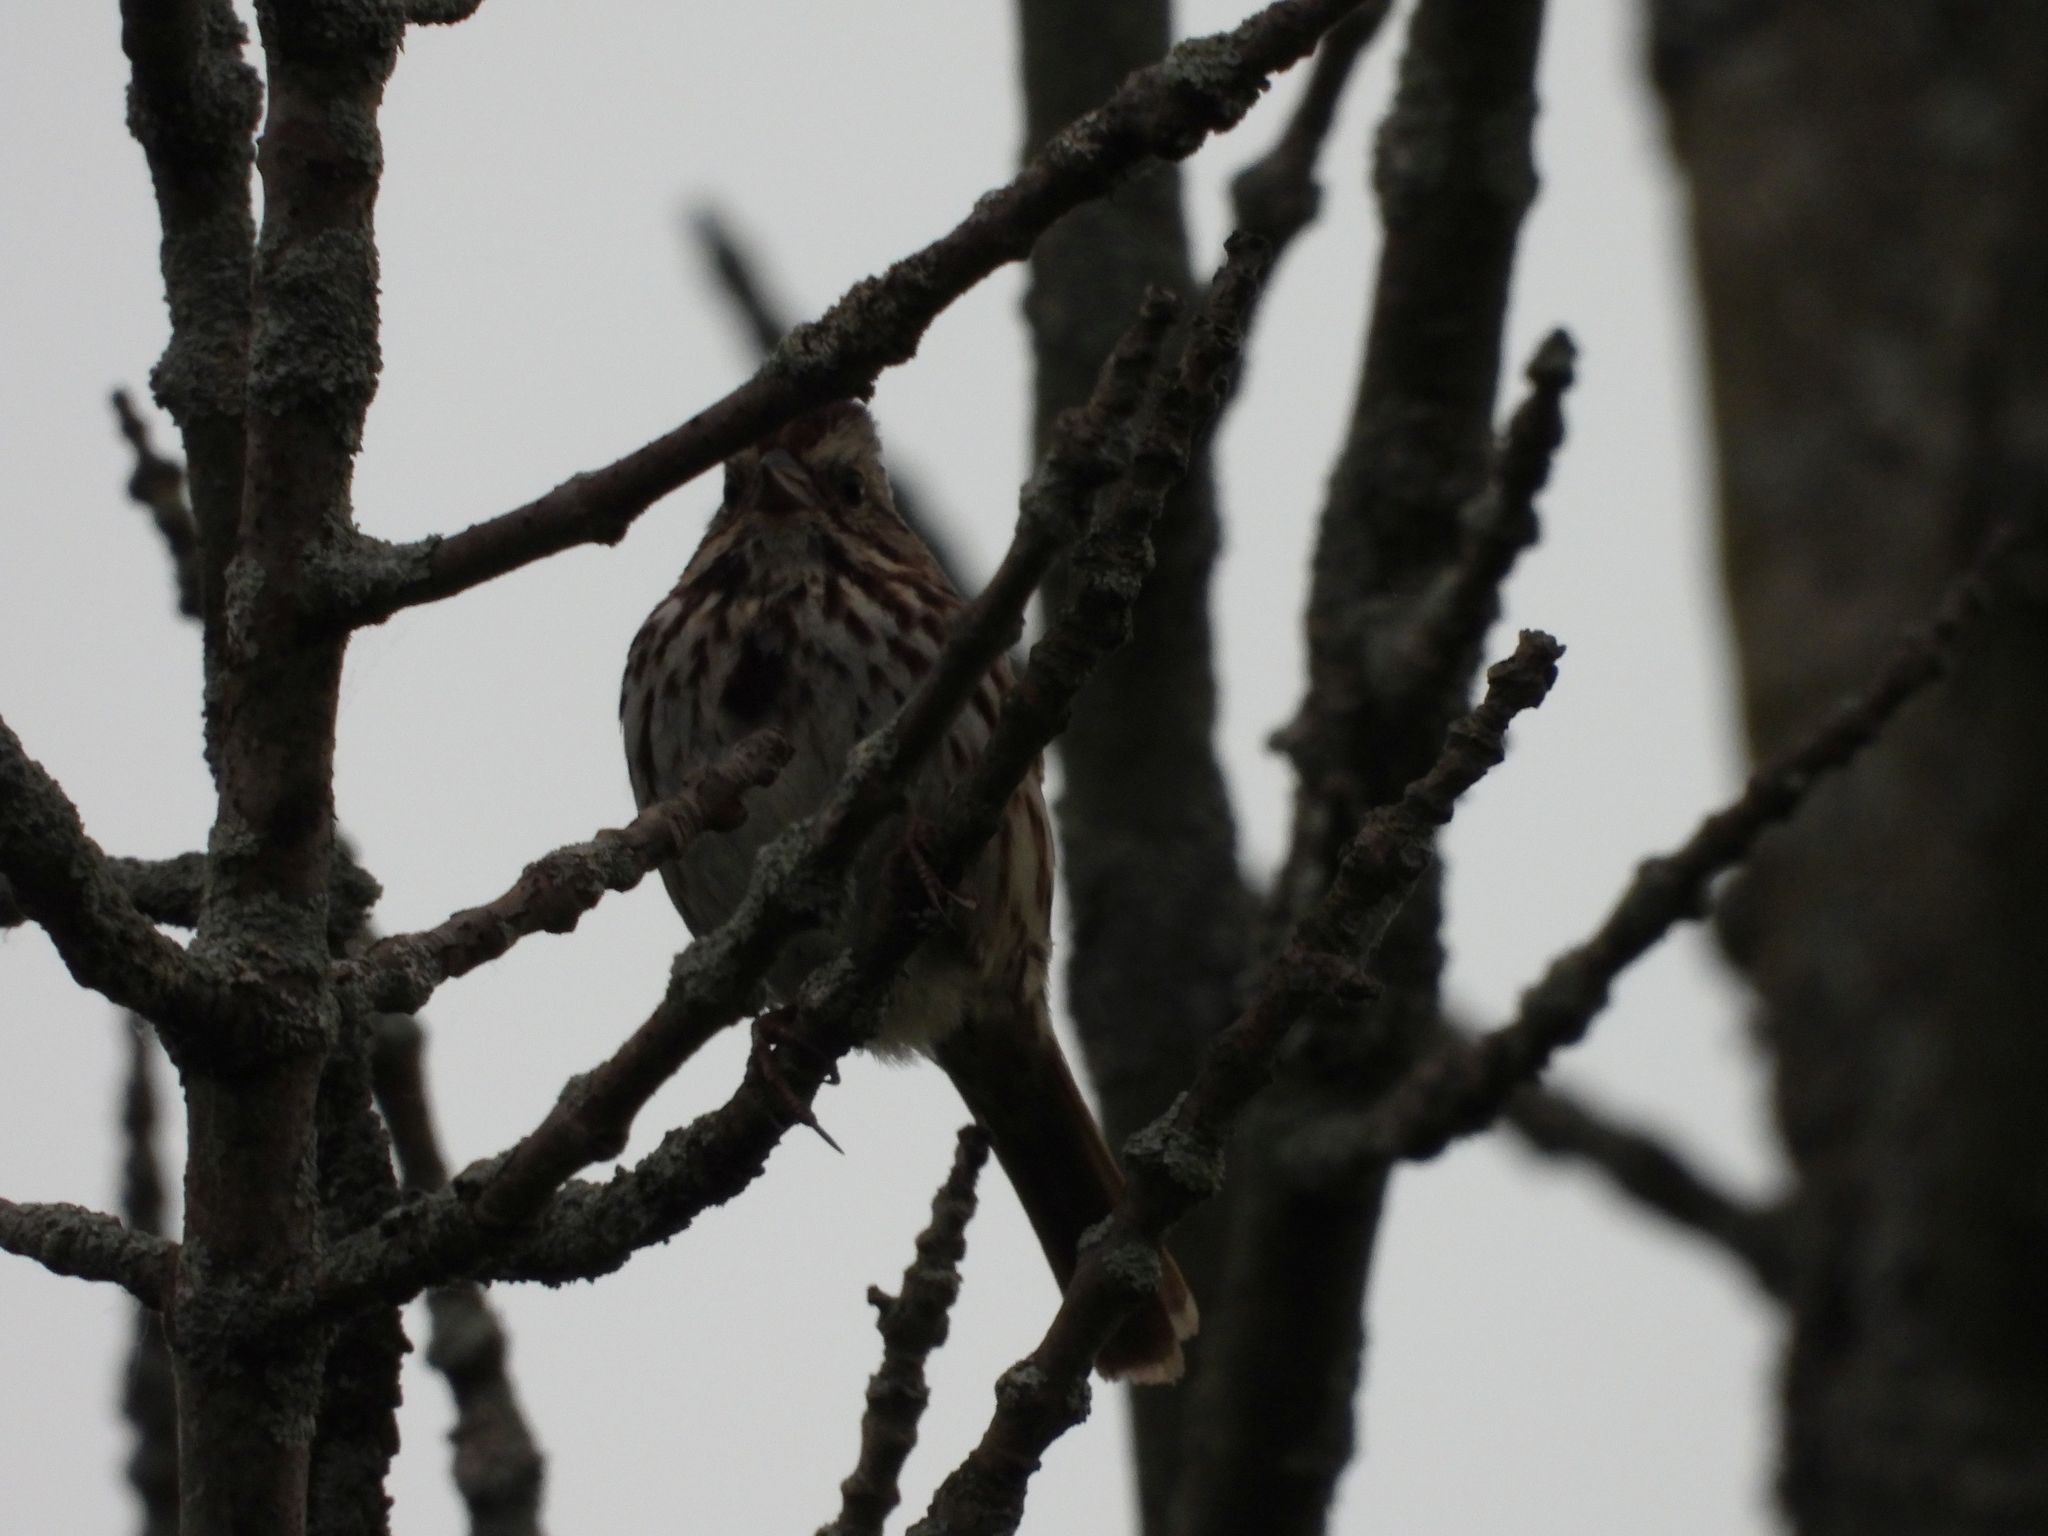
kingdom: Animalia
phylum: Chordata
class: Aves
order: Passeriformes
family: Passerellidae
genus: Melospiza
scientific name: Melospiza melodia
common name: Song sparrow
